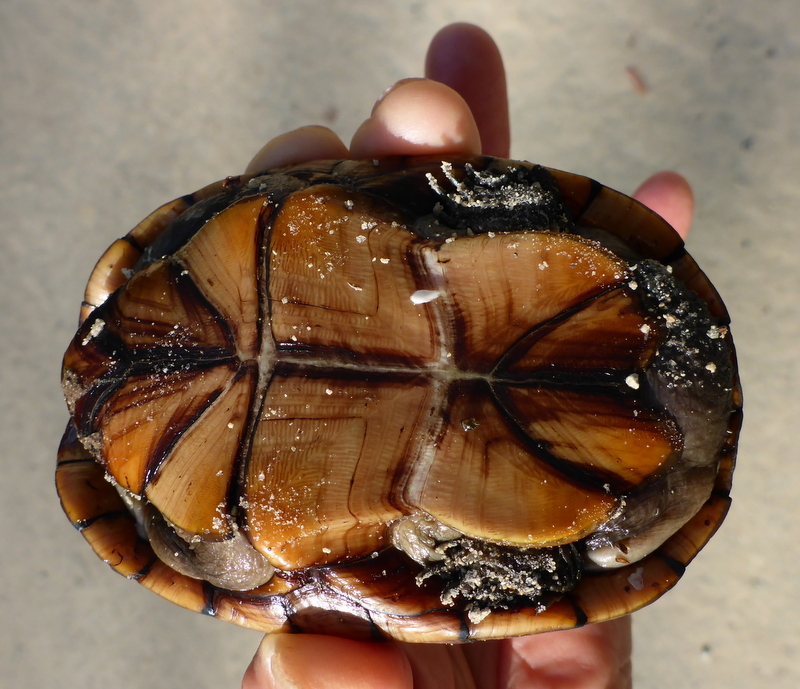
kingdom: Animalia
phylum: Chordata
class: Testudines
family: Kinosternidae
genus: Kinosternon
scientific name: Kinosternon subrubrum
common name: Eastern mud turtle
